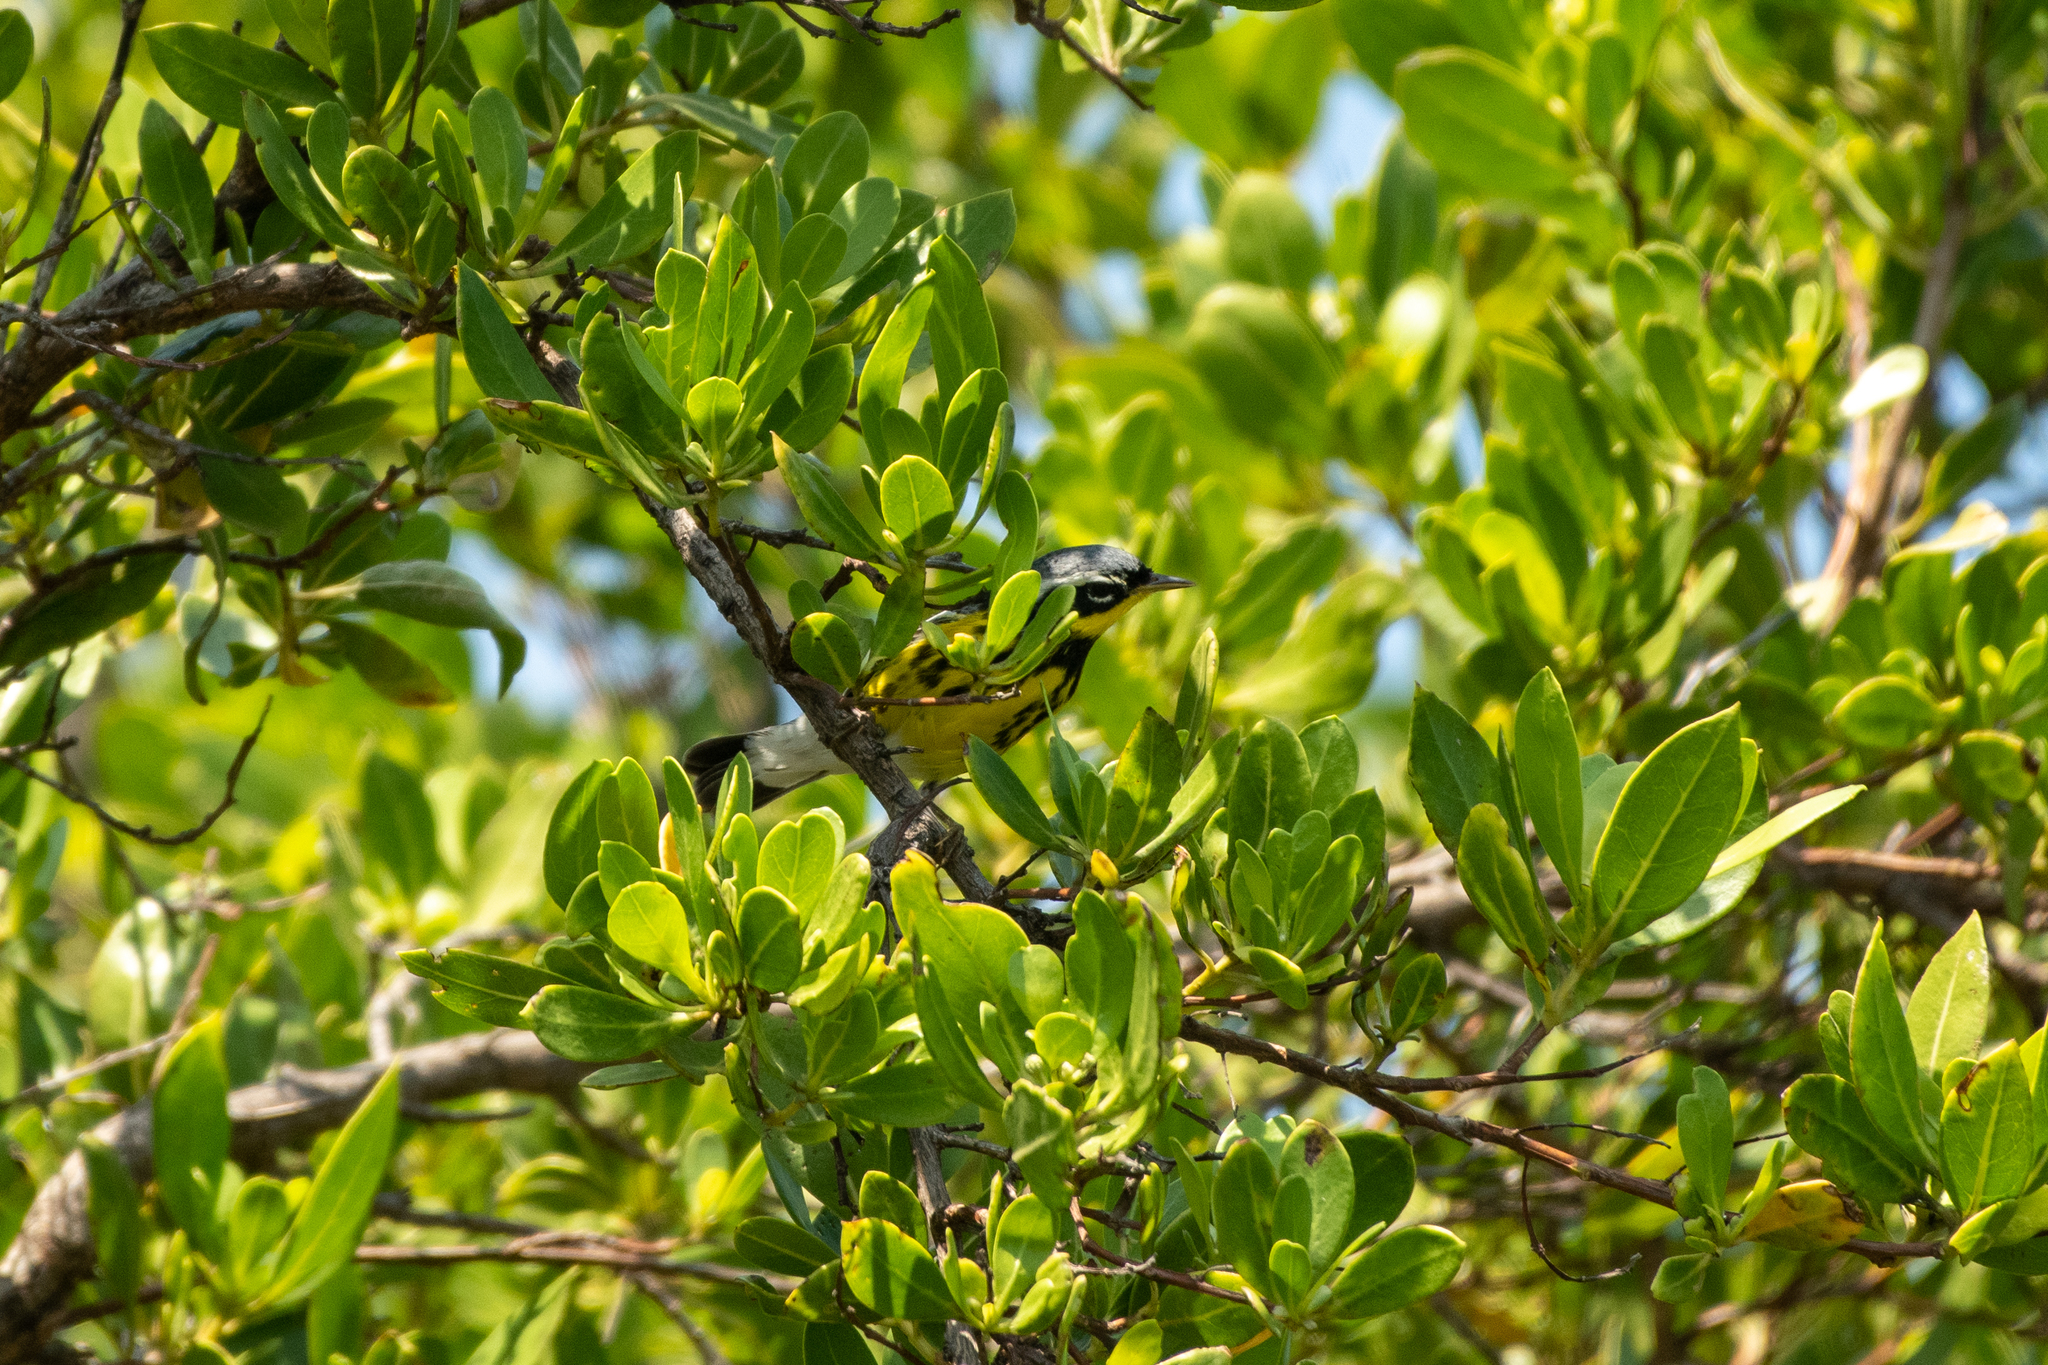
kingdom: Animalia
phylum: Chordata
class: Aves
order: Passeriformes
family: Parulidae
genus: Setophaga
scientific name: Setophaga magnolia
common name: Magnolia warbler
